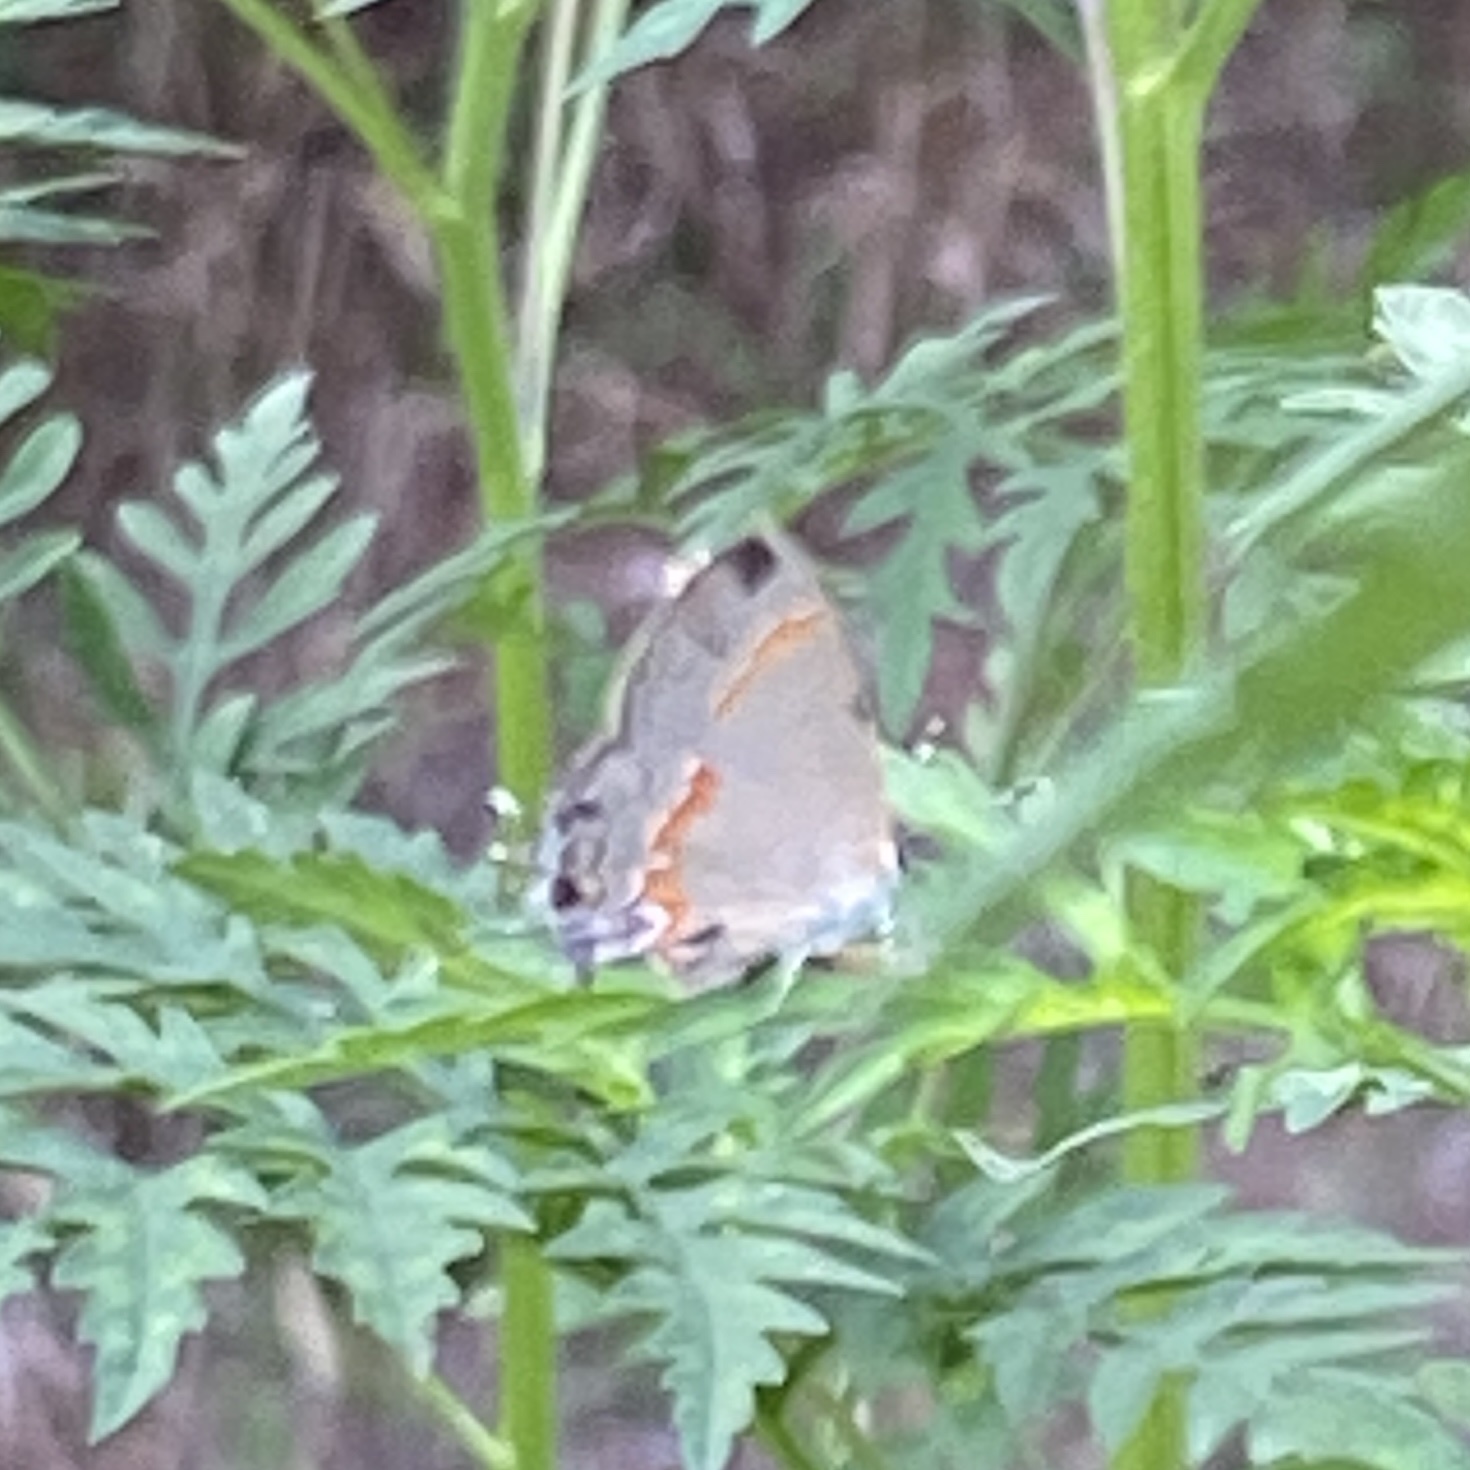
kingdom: Animalia
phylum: Arthropoda
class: Insecta
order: Lepidoptera
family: Lycaenidae
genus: Calycopis
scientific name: Calycopis cecrops
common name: Red-banded hairstreak
